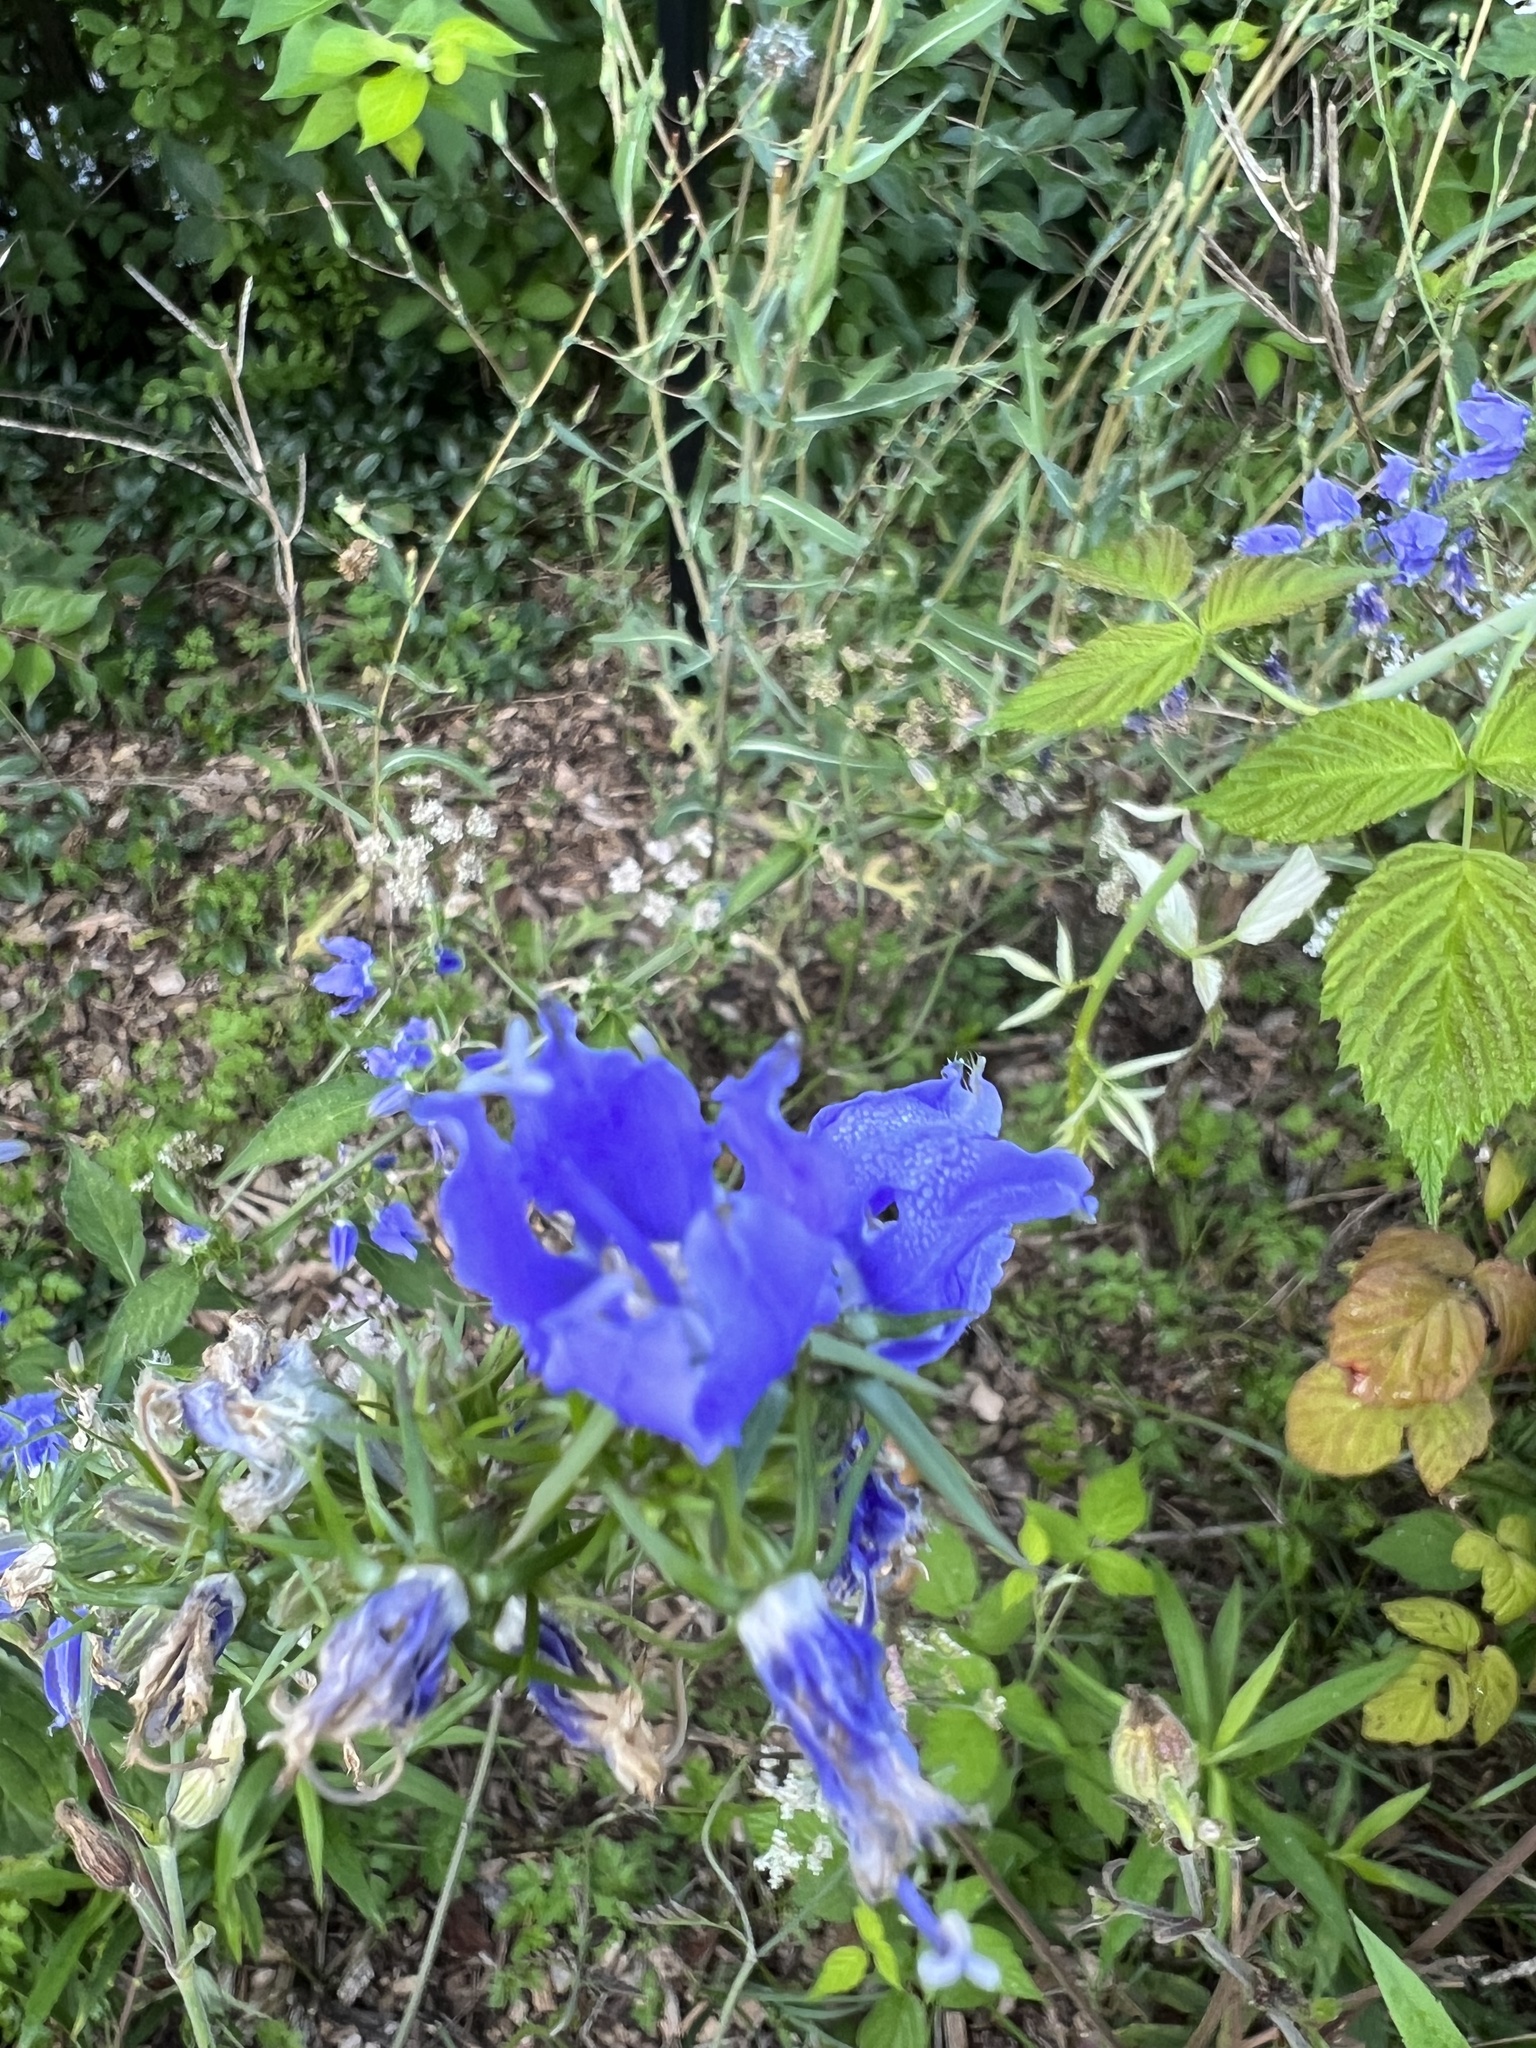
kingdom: Plantae
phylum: Tracheophyta
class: Magnoliopsida
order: Asterales
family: Campanulaceae
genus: Campanulastrum
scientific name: Campanulastrum americanum
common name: American bellflower
